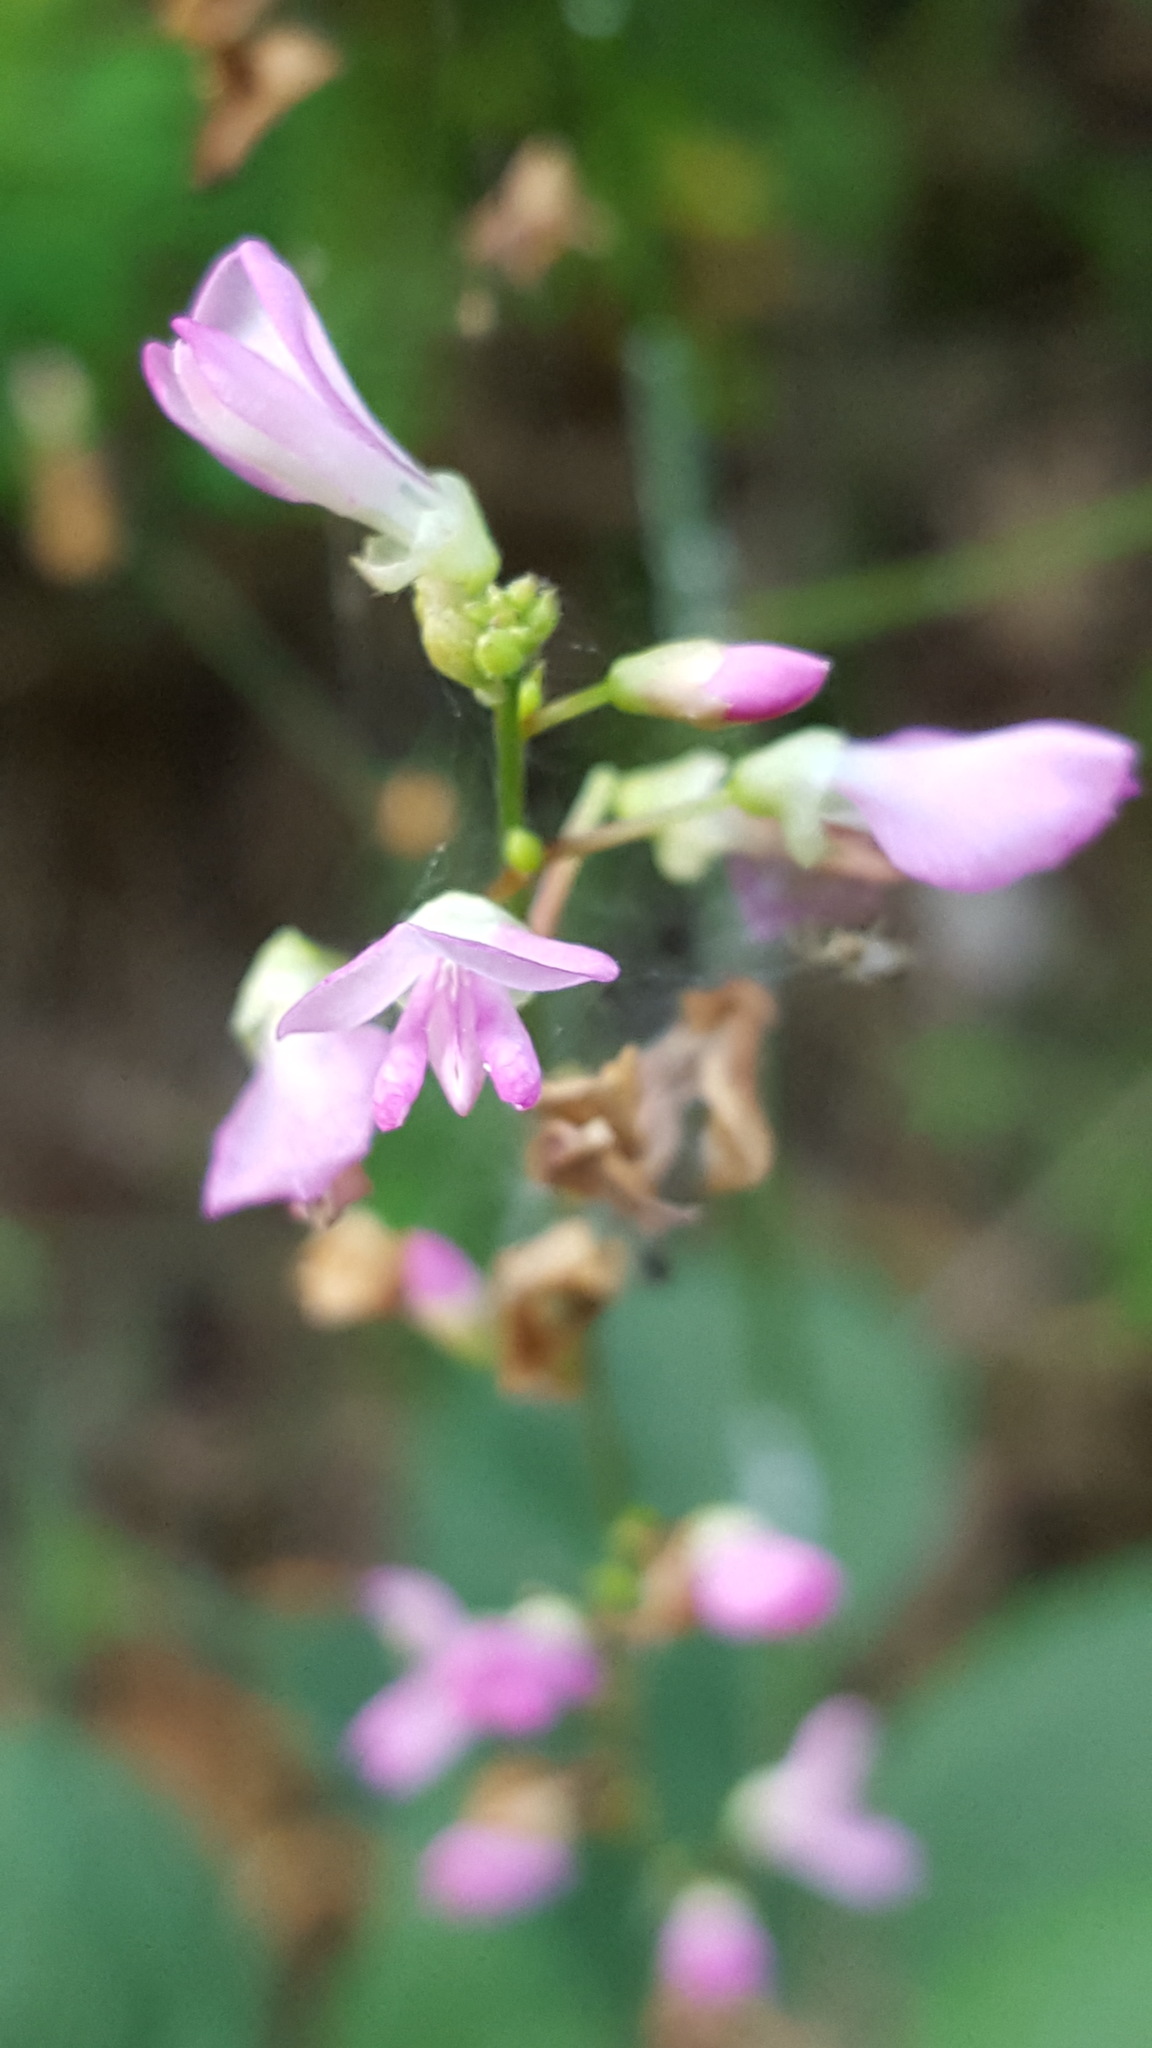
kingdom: Plantae
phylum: Tracheophyta
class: Magnoliopsida
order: Fabales
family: Fabaceae
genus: Hylodesmum
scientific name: Hylodesmum glutinosum
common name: Clustered-leaved tick-trefoil
